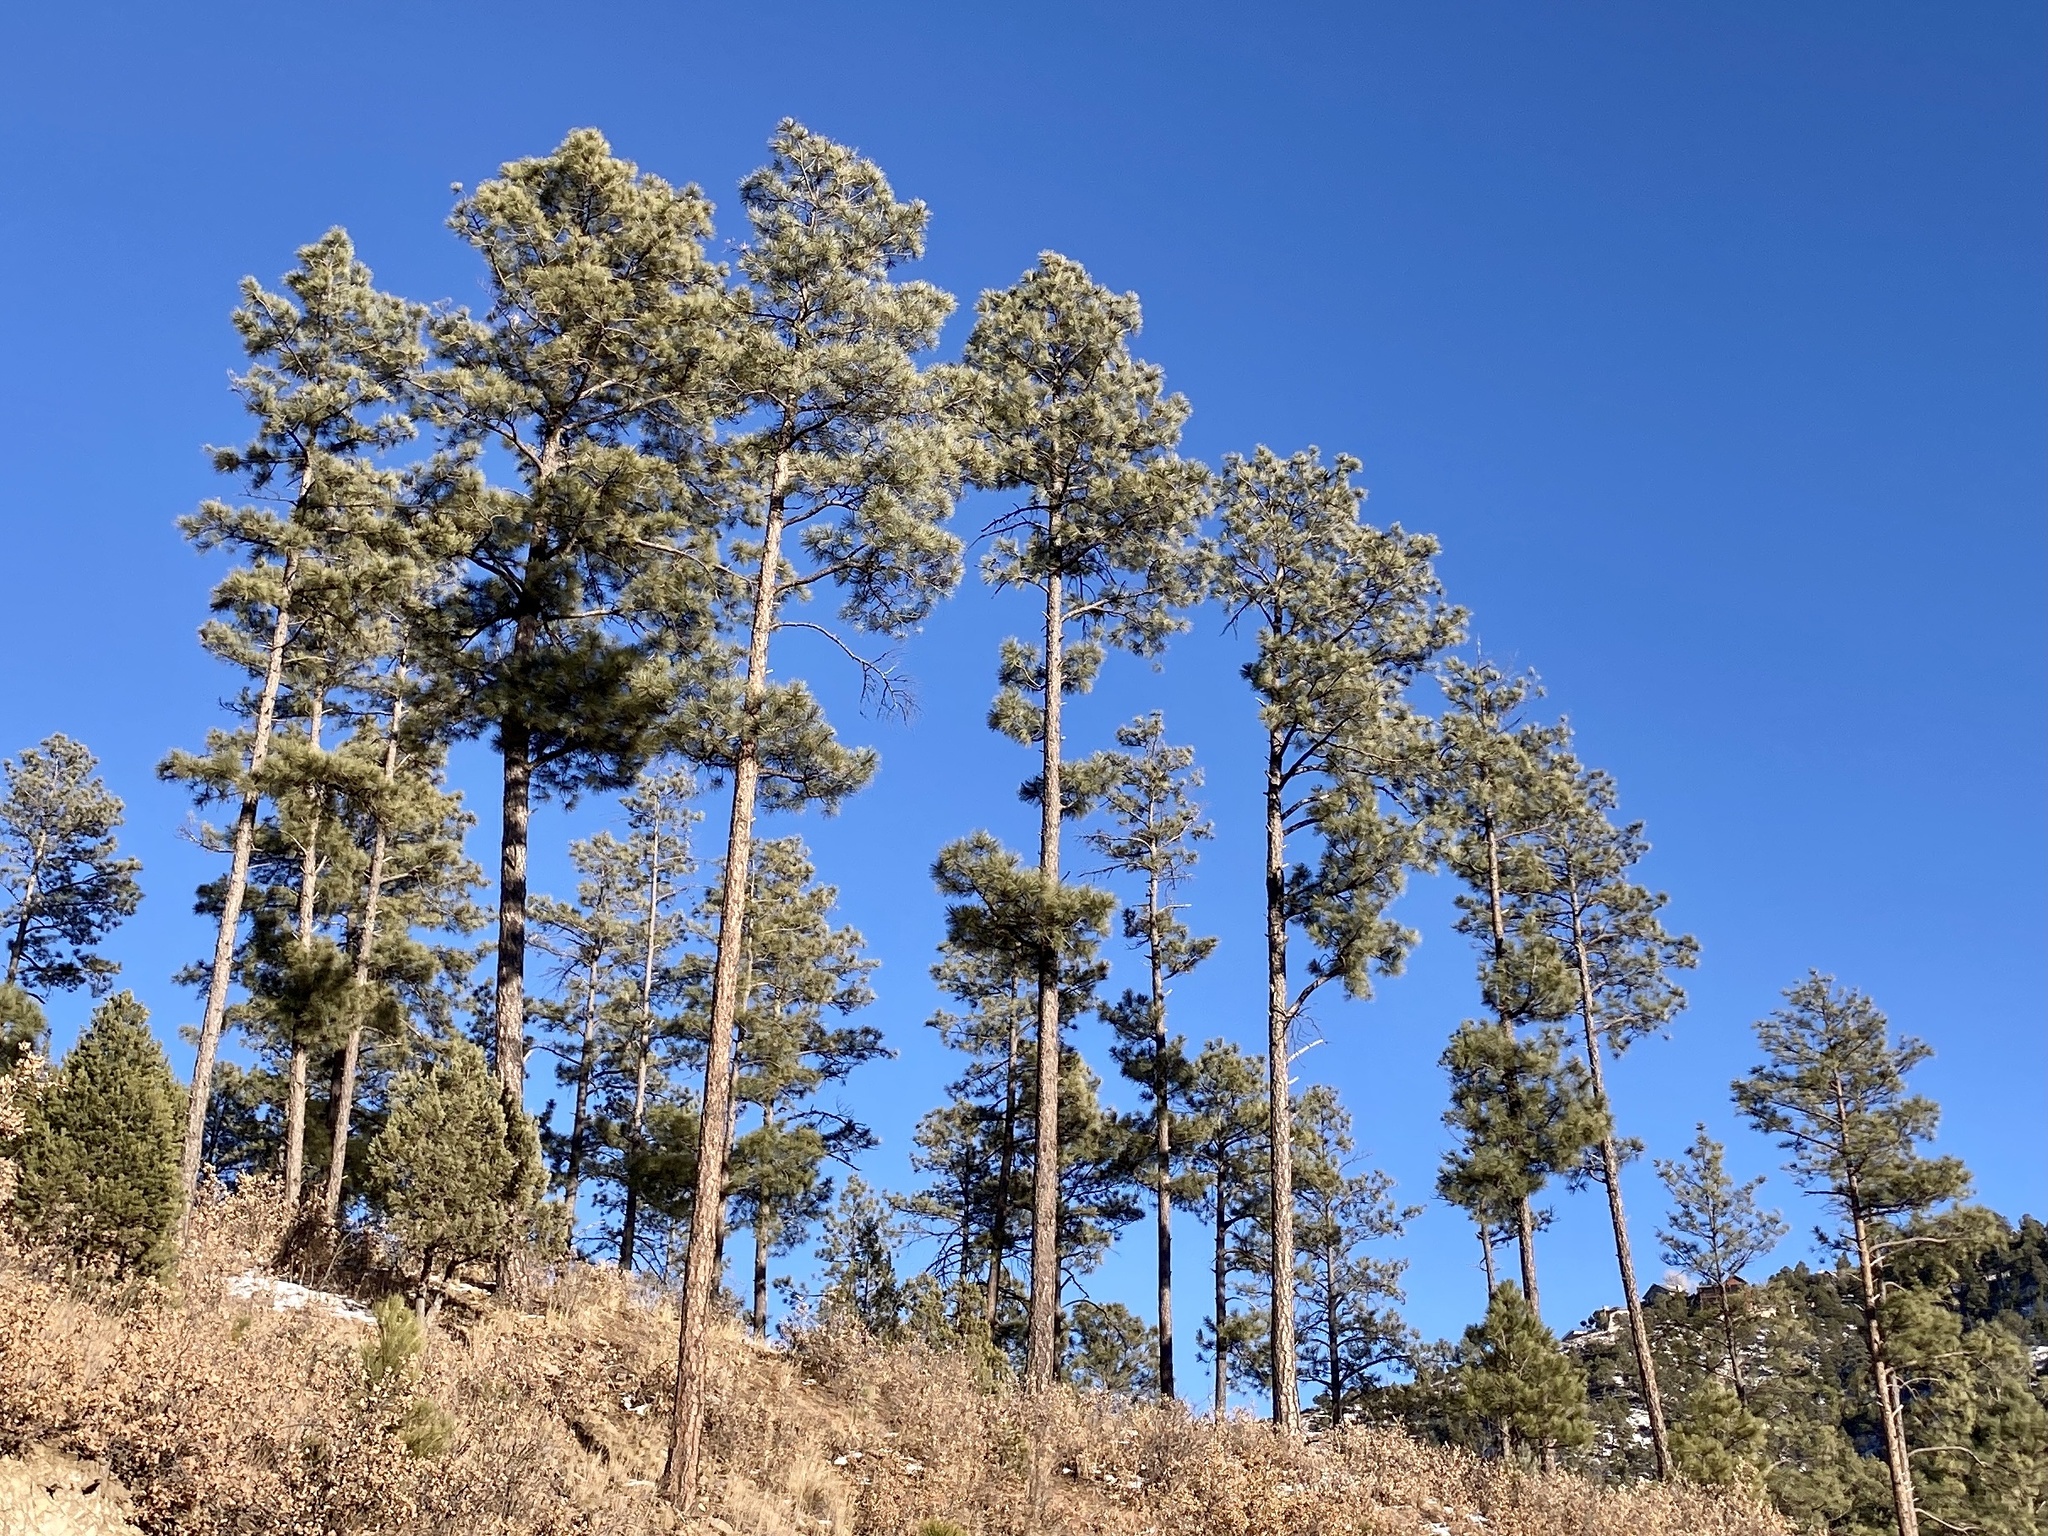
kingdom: Plantae
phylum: Tracheophyta
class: Pinopsida
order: Pinales
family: Pinaceae
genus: Pinus
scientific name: Pinus ponderosa
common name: Western yellow-pine
